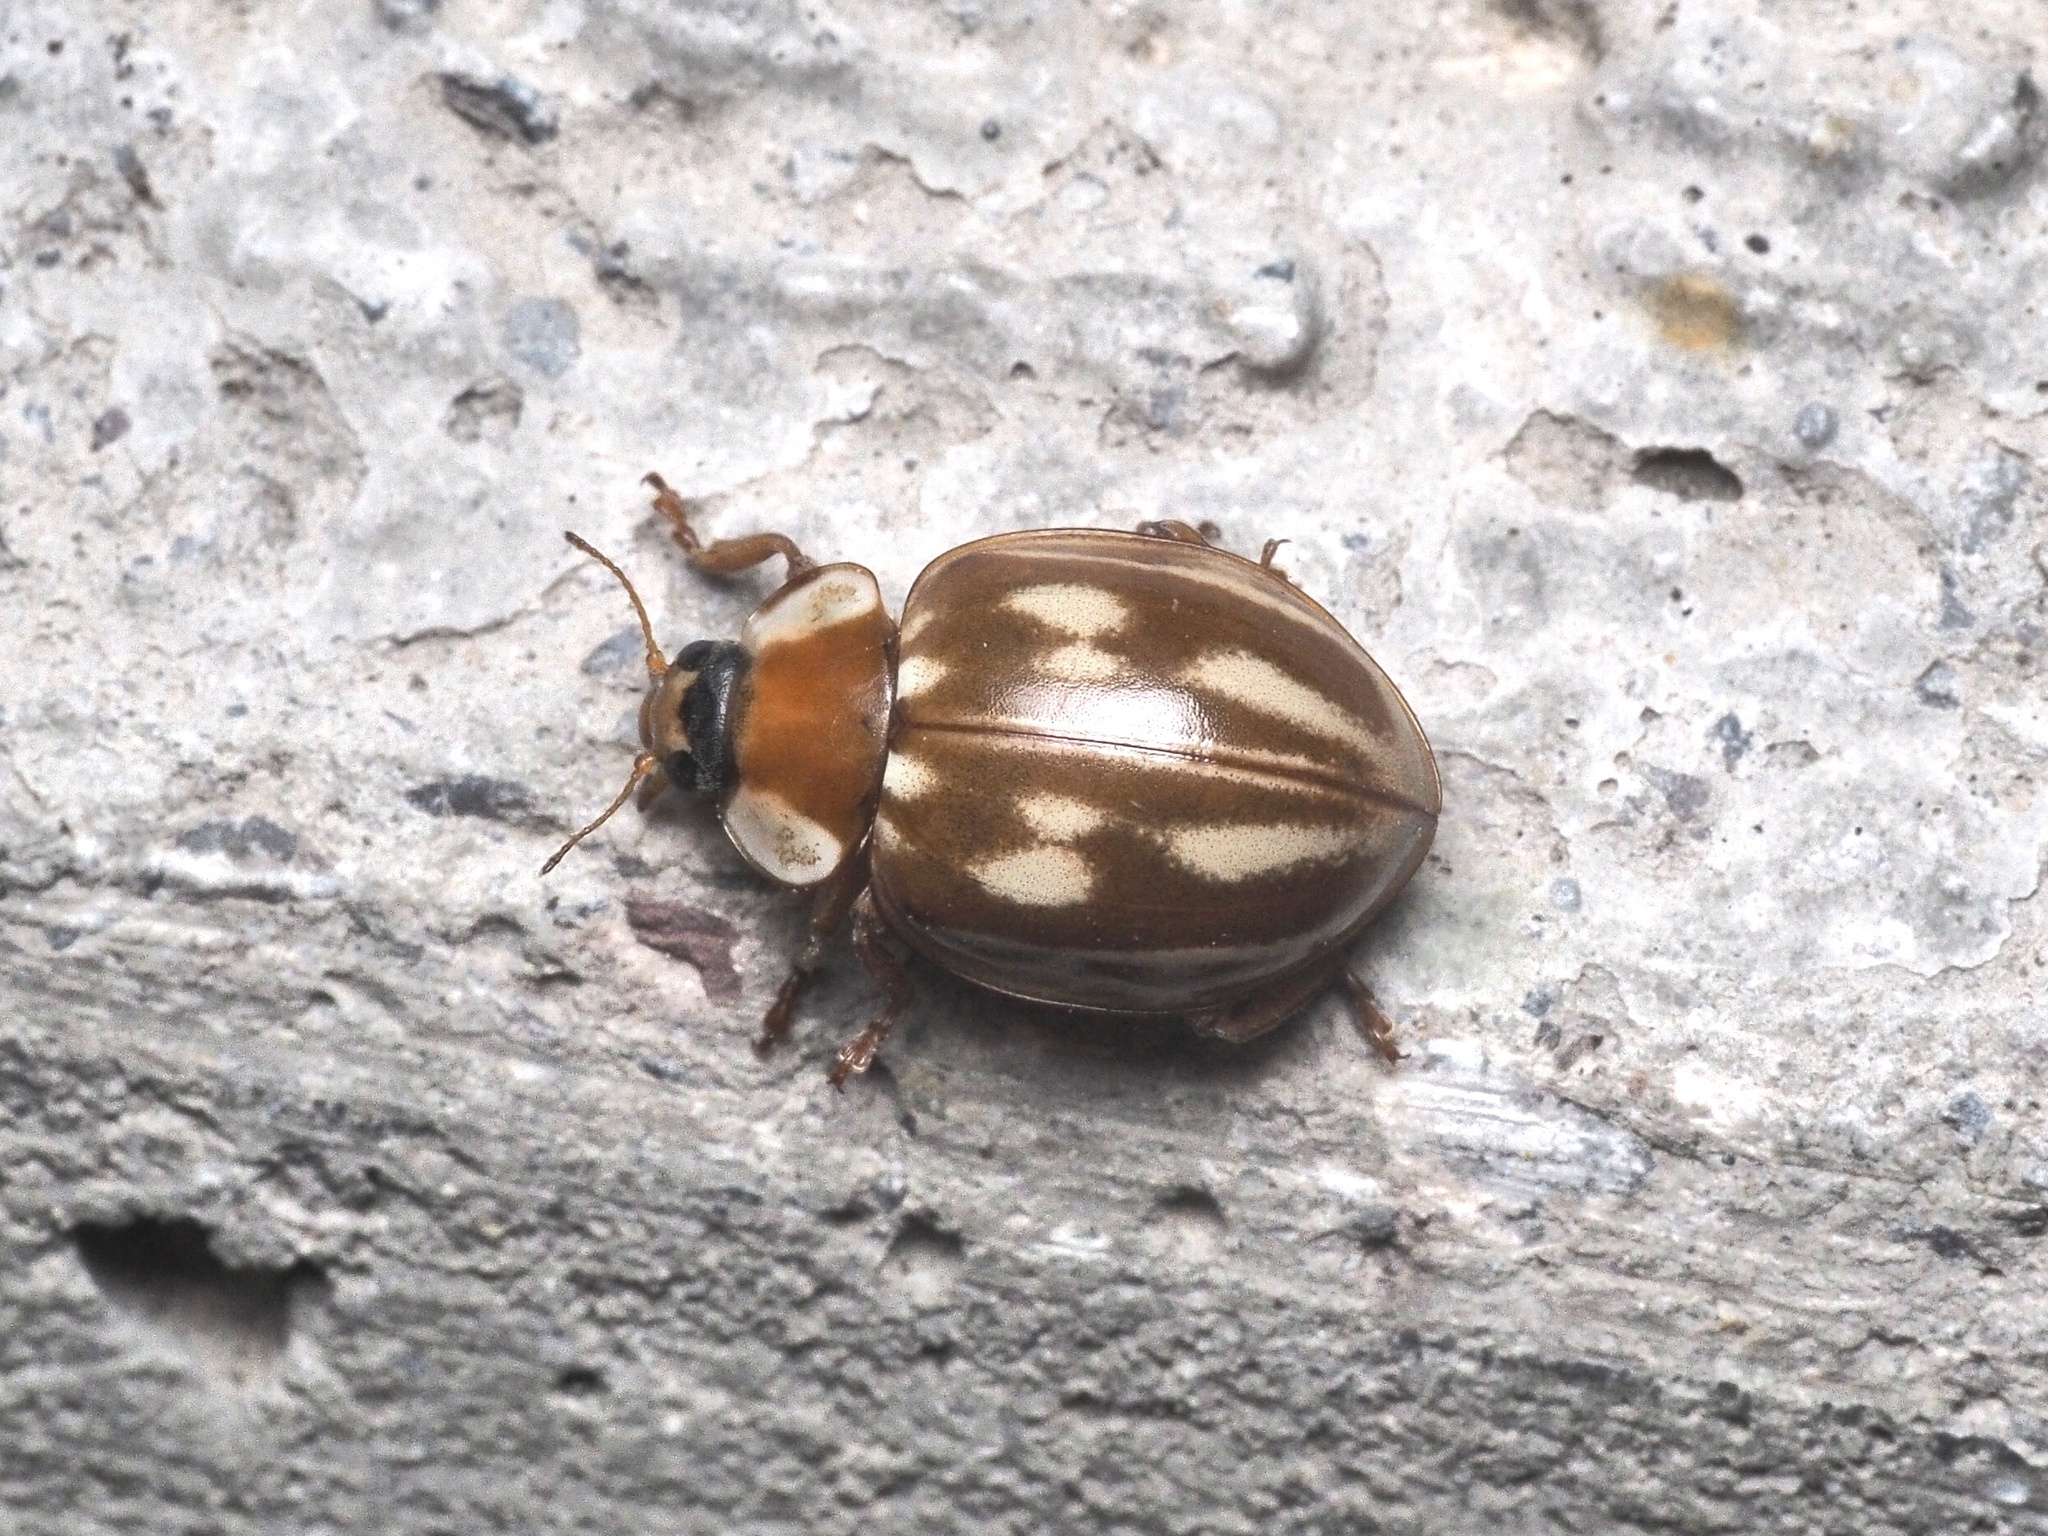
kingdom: Animalia
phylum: Arthropoda
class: Insecta
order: Coleoptera
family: Coccinellidae
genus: Myzia
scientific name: Myzia oblongoguttata
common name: Striped ladybird
